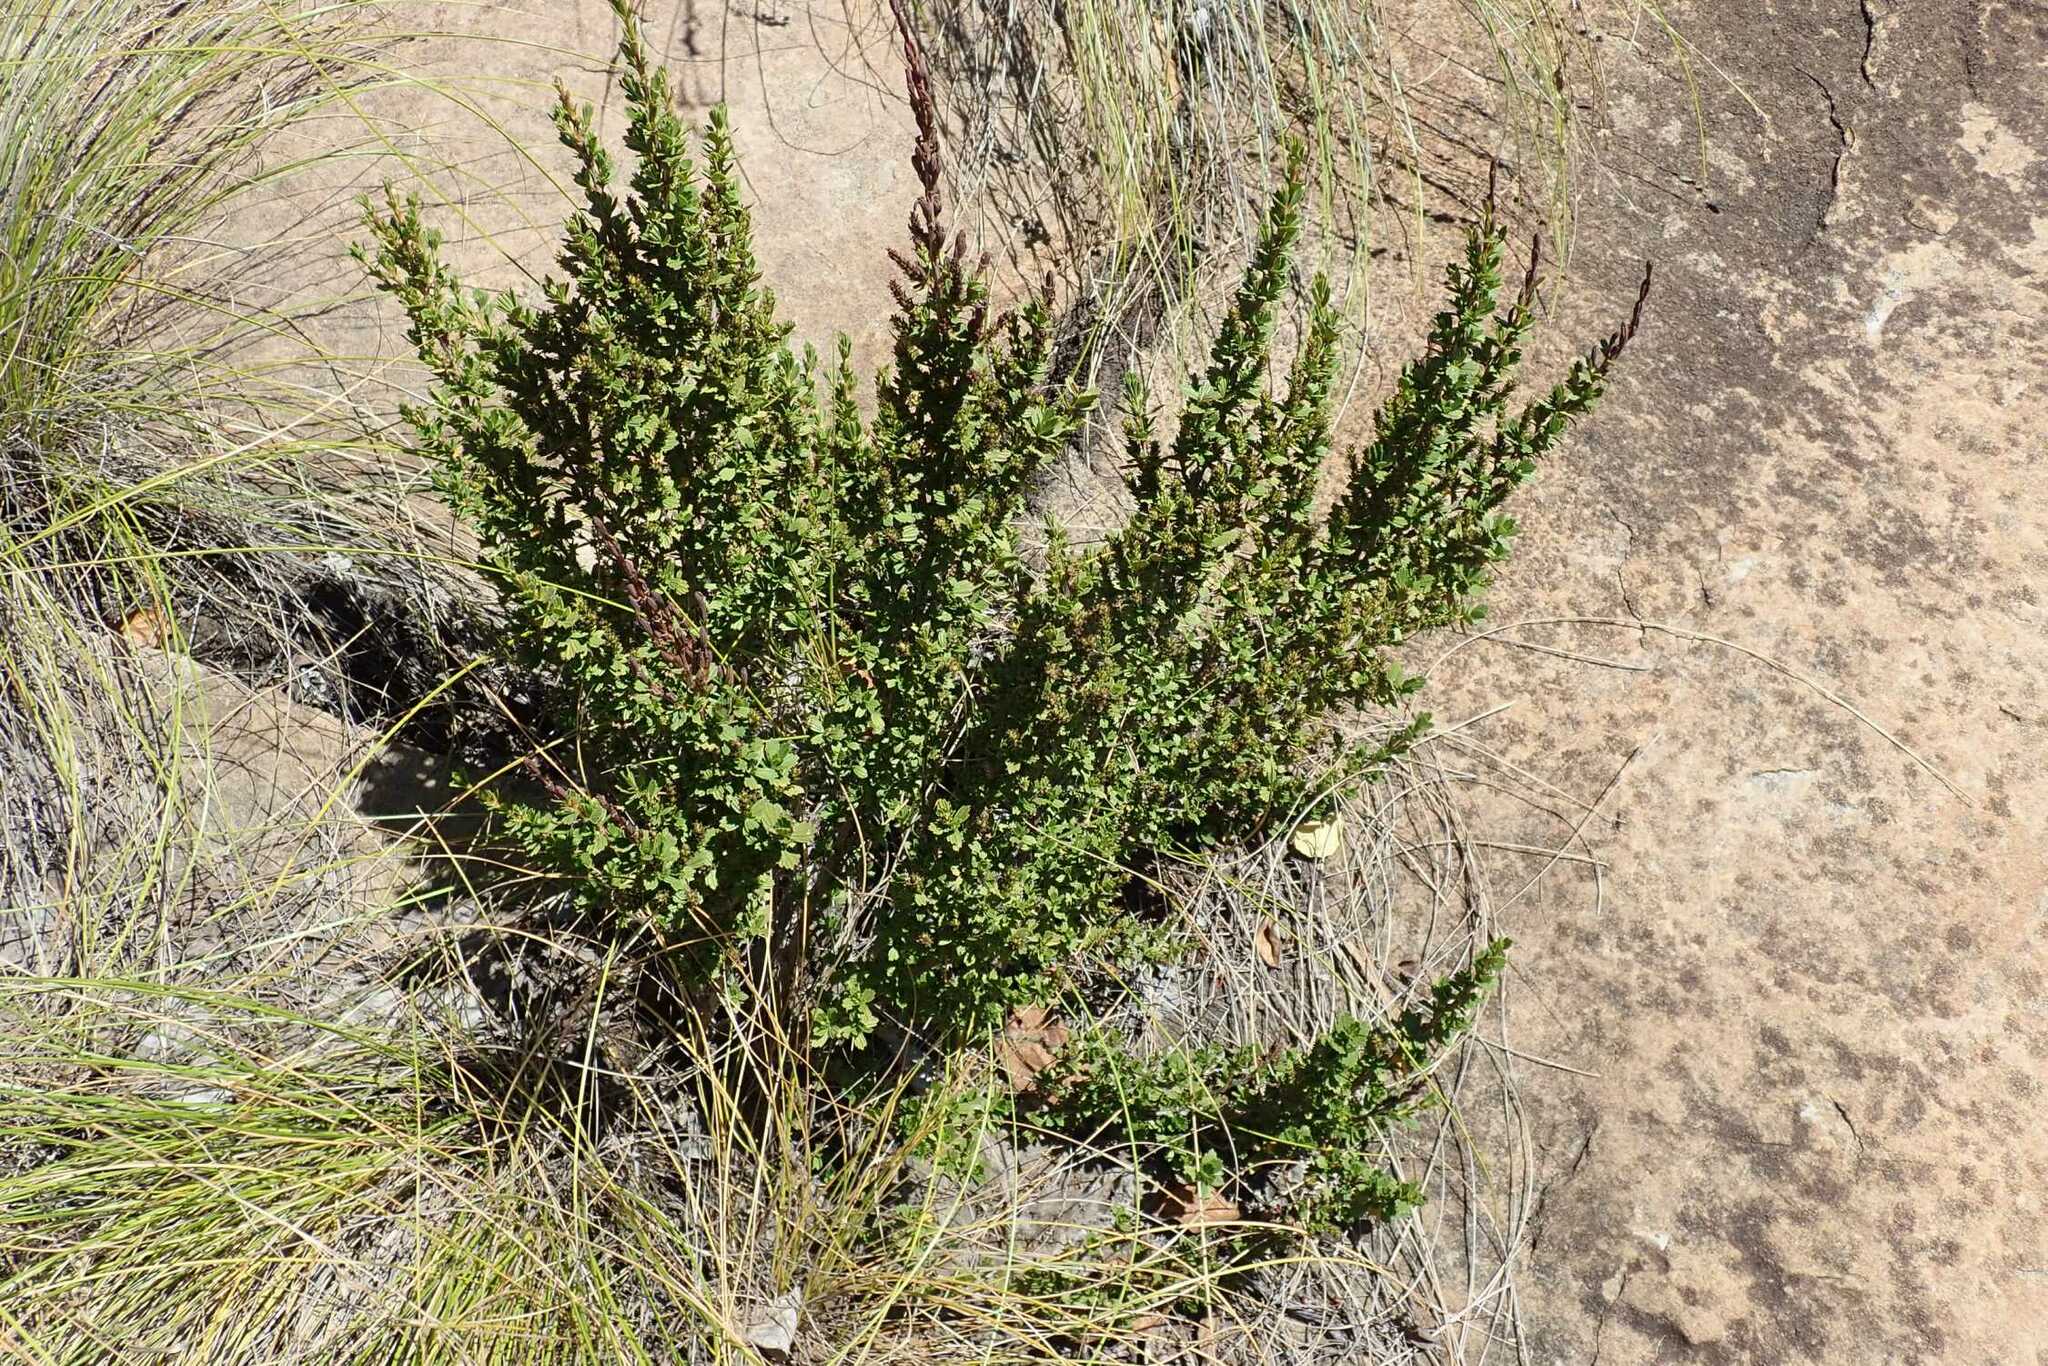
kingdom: Plantae
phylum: Tracheophyta
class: Magnoliopsida
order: Gunnerales
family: Myrothamnaceae
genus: Myrothamnus
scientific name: Myrothamnus flabellifolius
